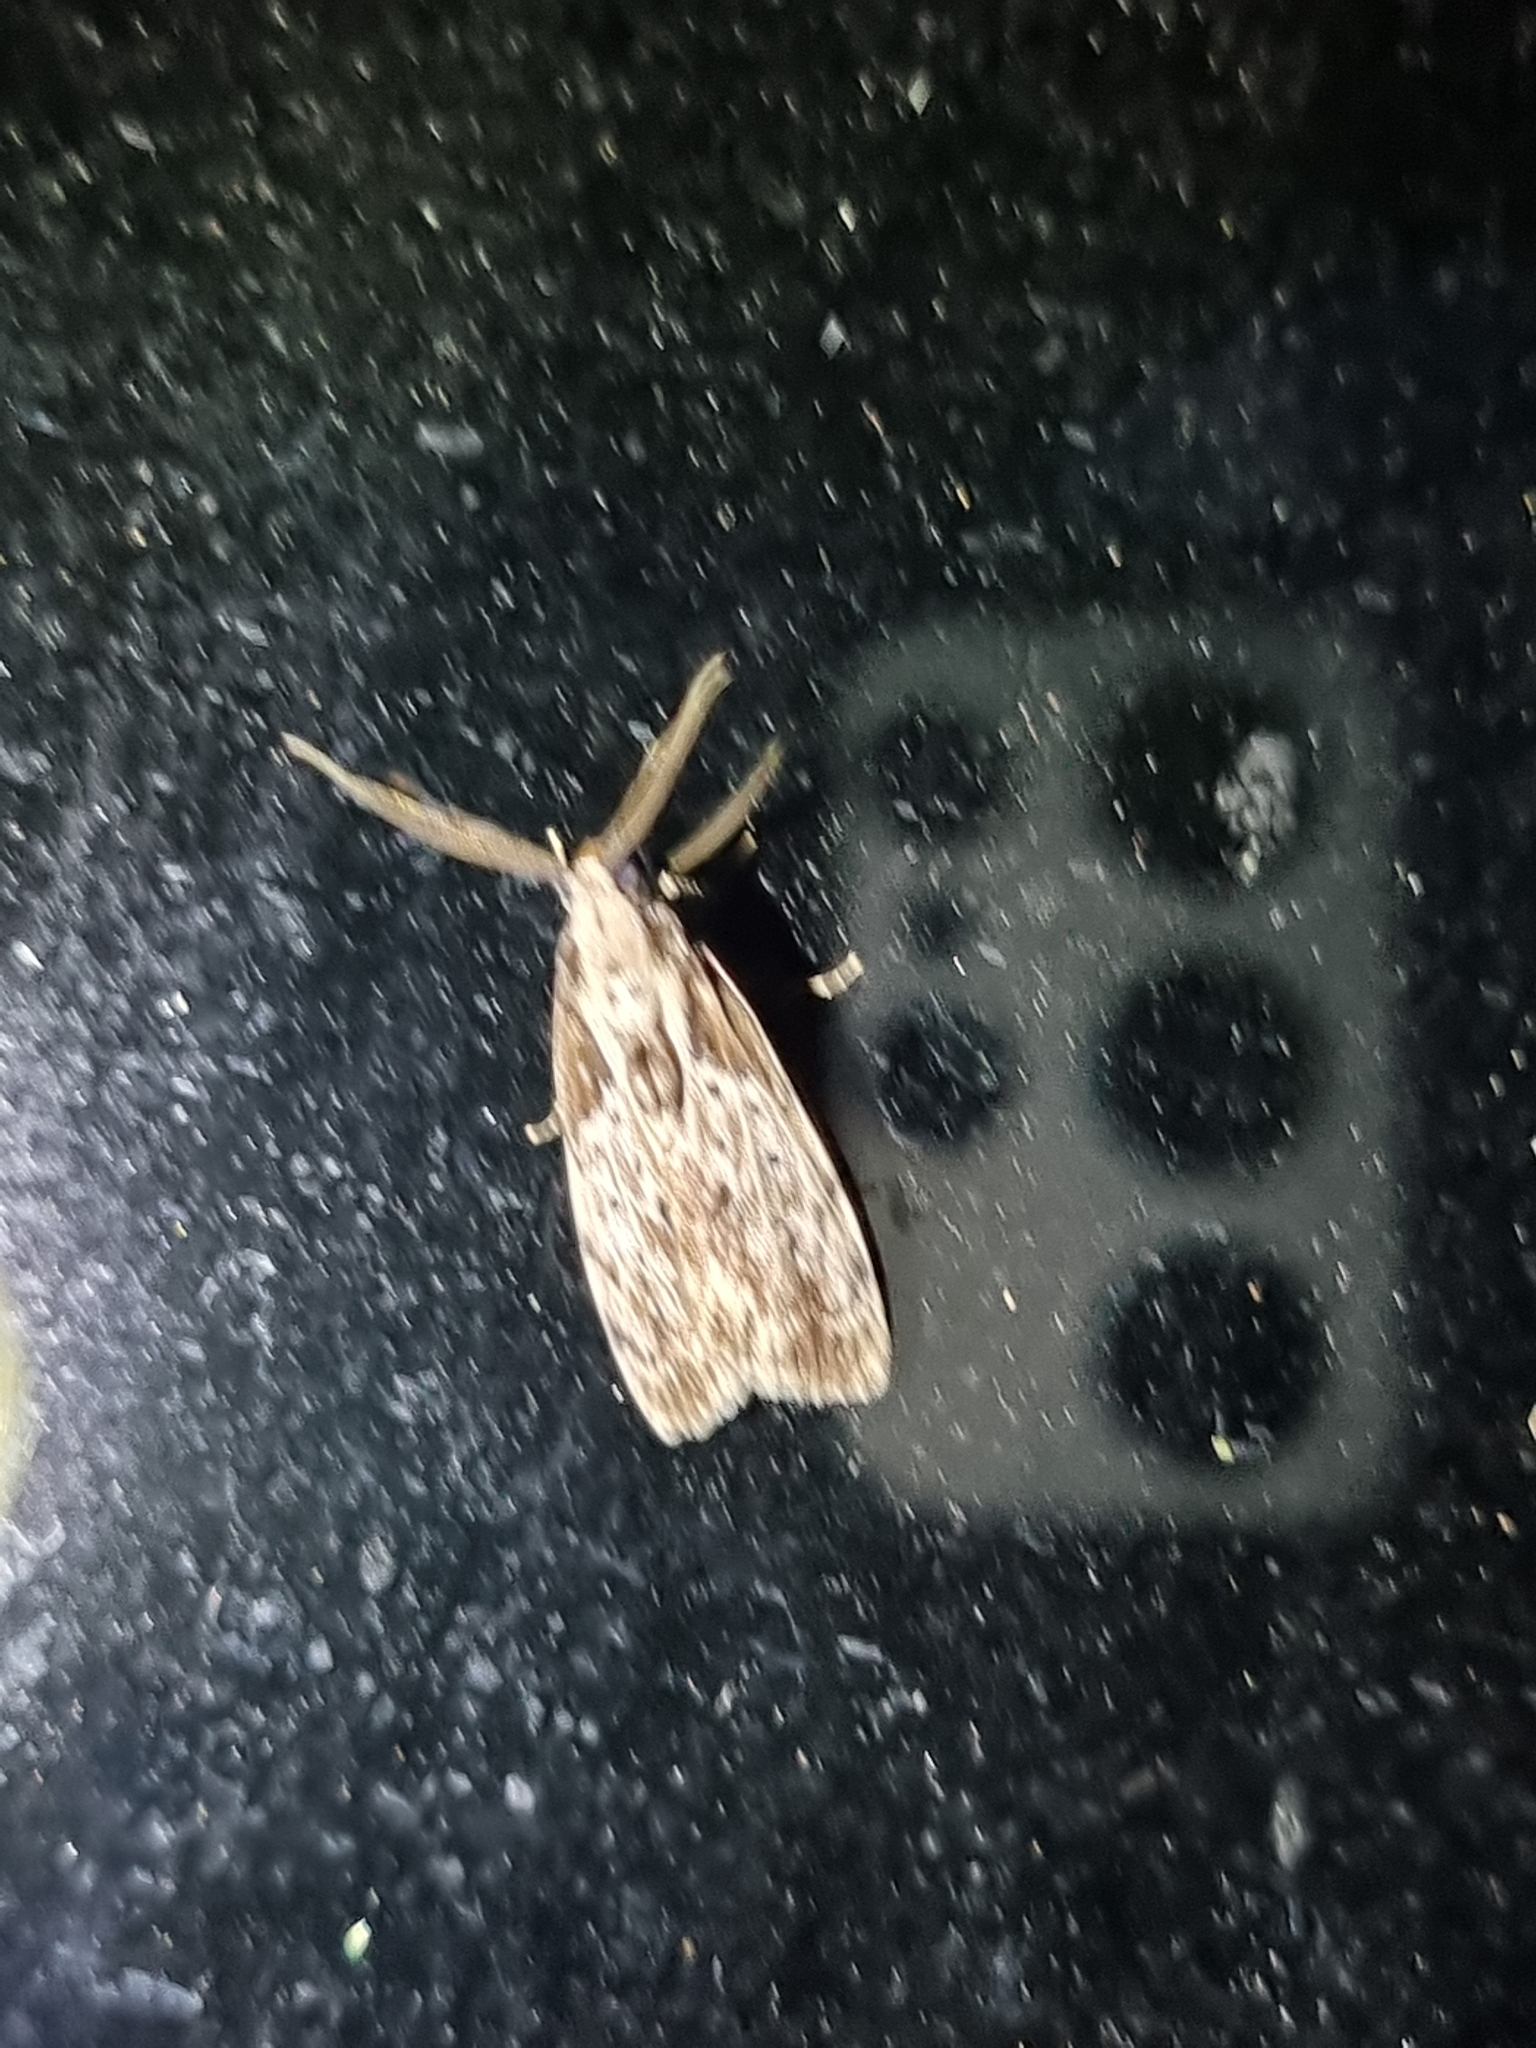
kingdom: Animalia
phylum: Arthropoda
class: Insecta
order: Lepidoptera
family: Erebidae
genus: Digama
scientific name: Digama Sommeria marmorea
